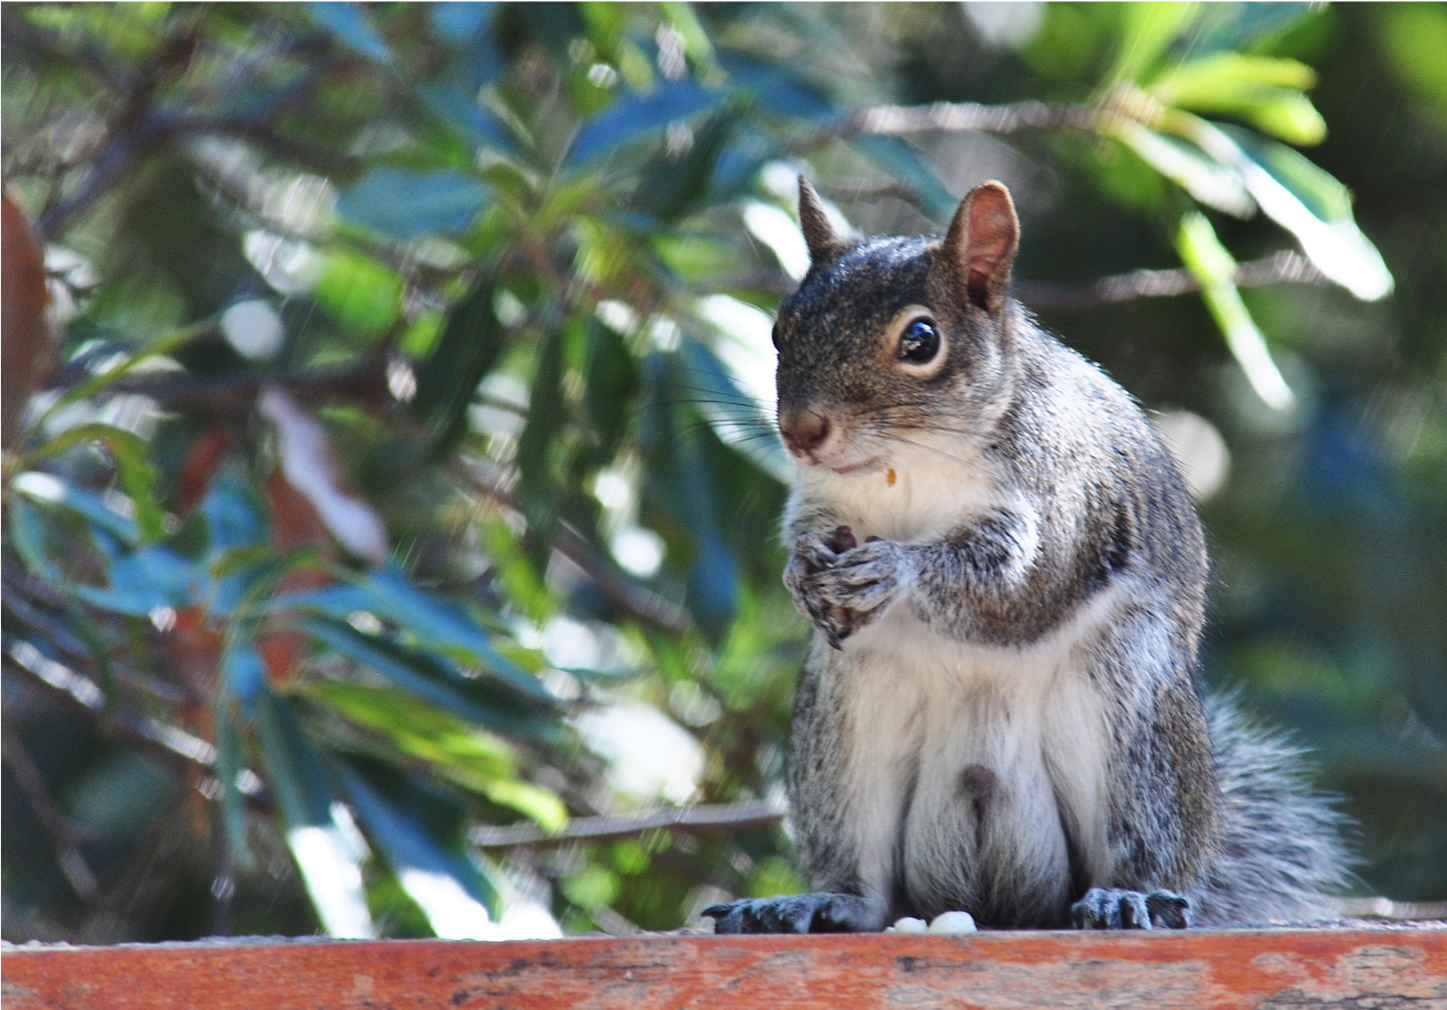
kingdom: Animalia
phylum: Chordata
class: Mammalia
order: Rodentia
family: Sciuridae
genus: Sciurus
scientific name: Sciurus alleni
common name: Allen's squirrel
